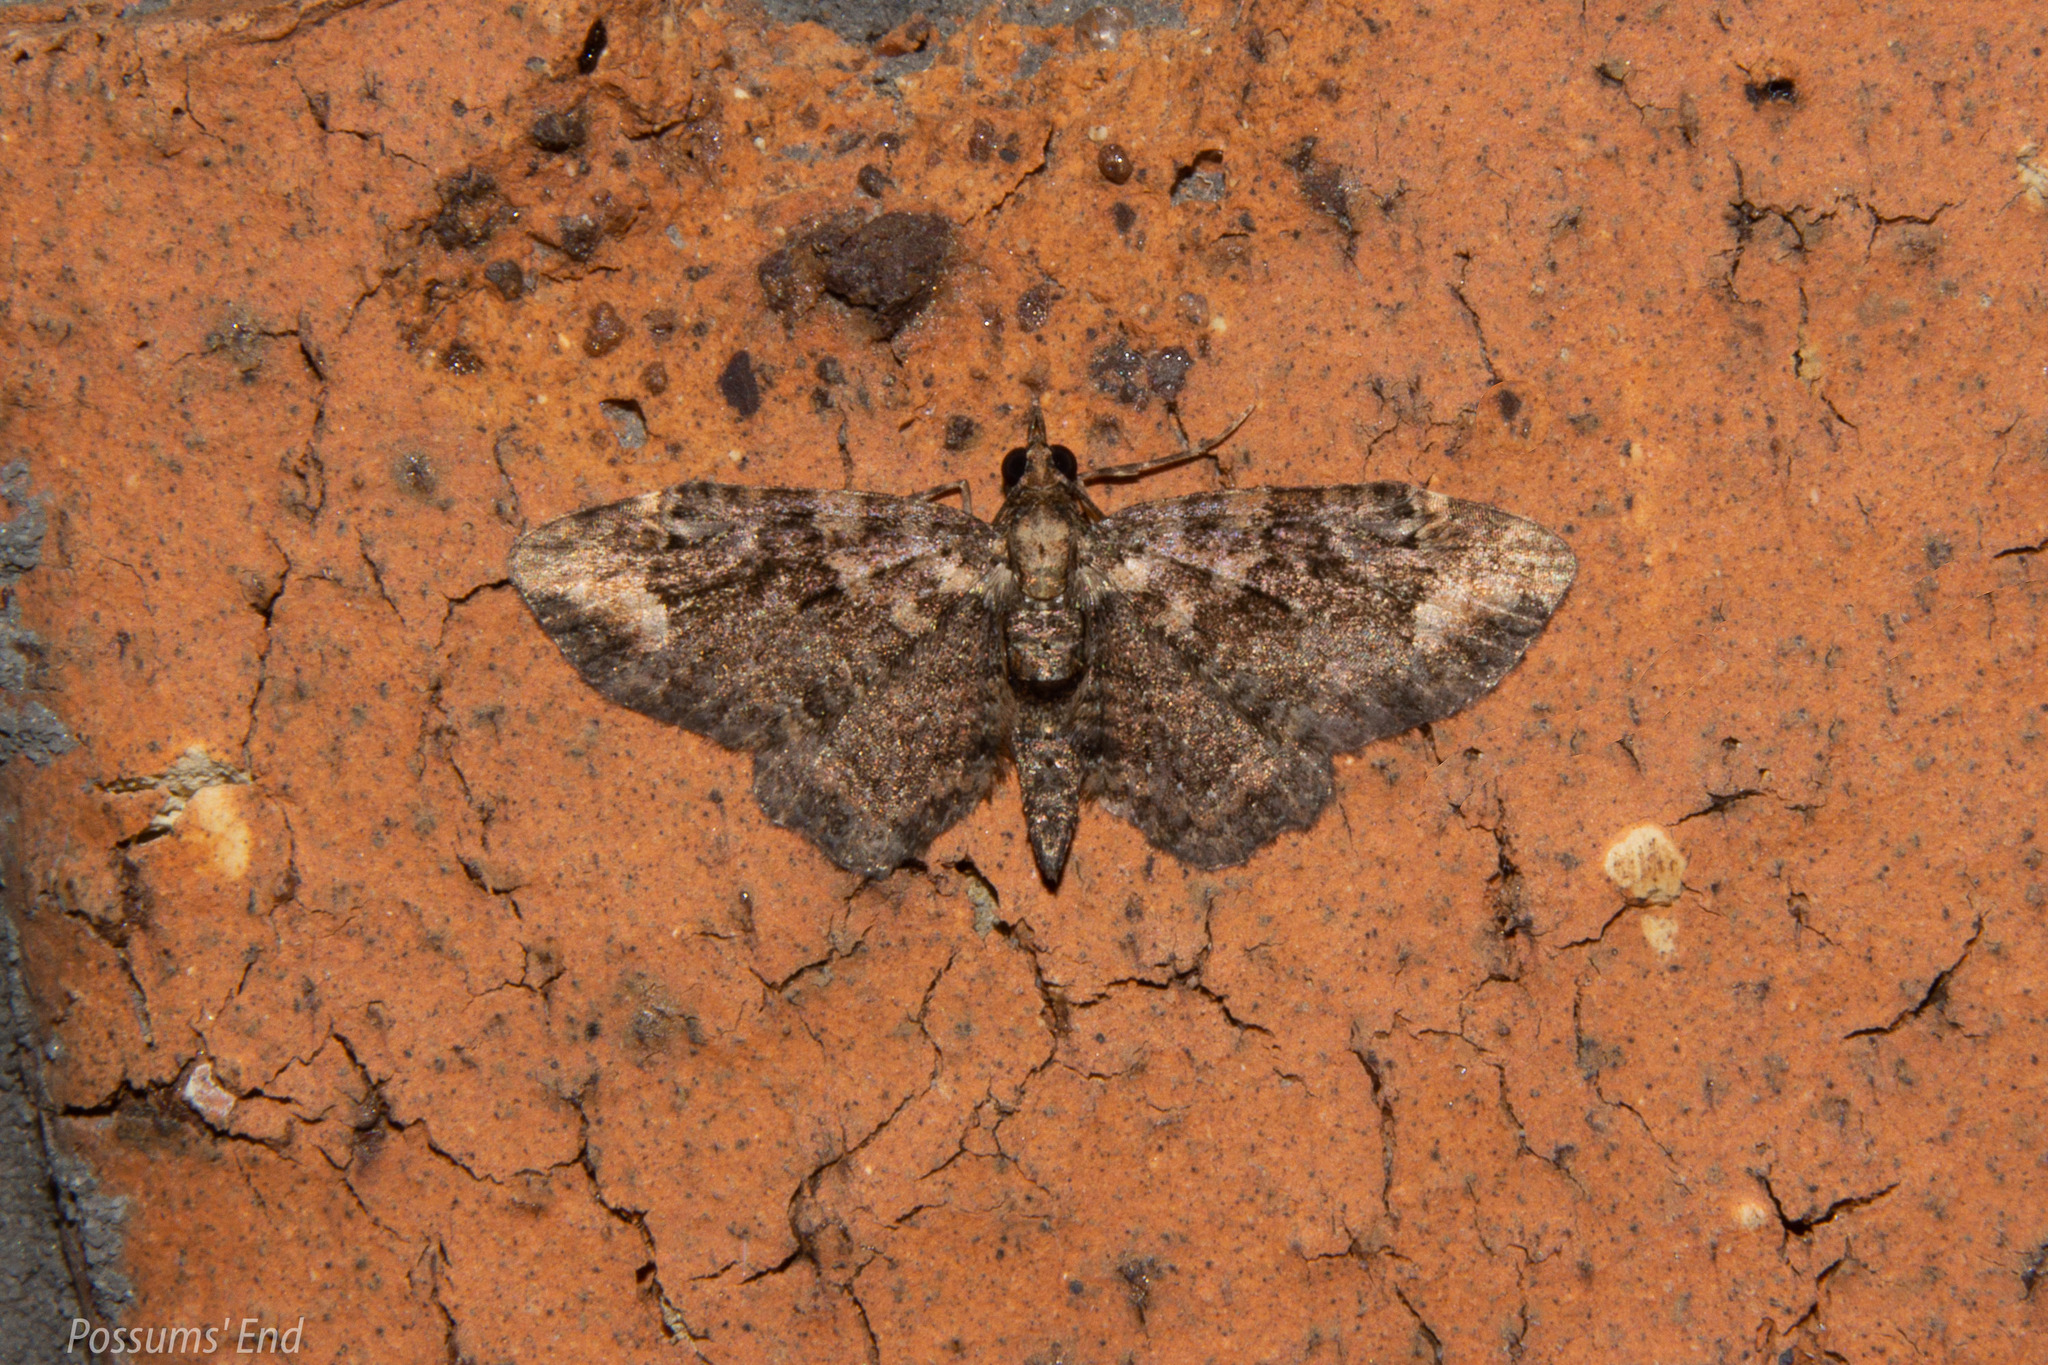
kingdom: Animalia
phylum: Arthropoda
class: Insecta
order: Lepidoptera
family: Geometridae
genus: Pasiphilodes
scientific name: Pasiphilodes testulata
